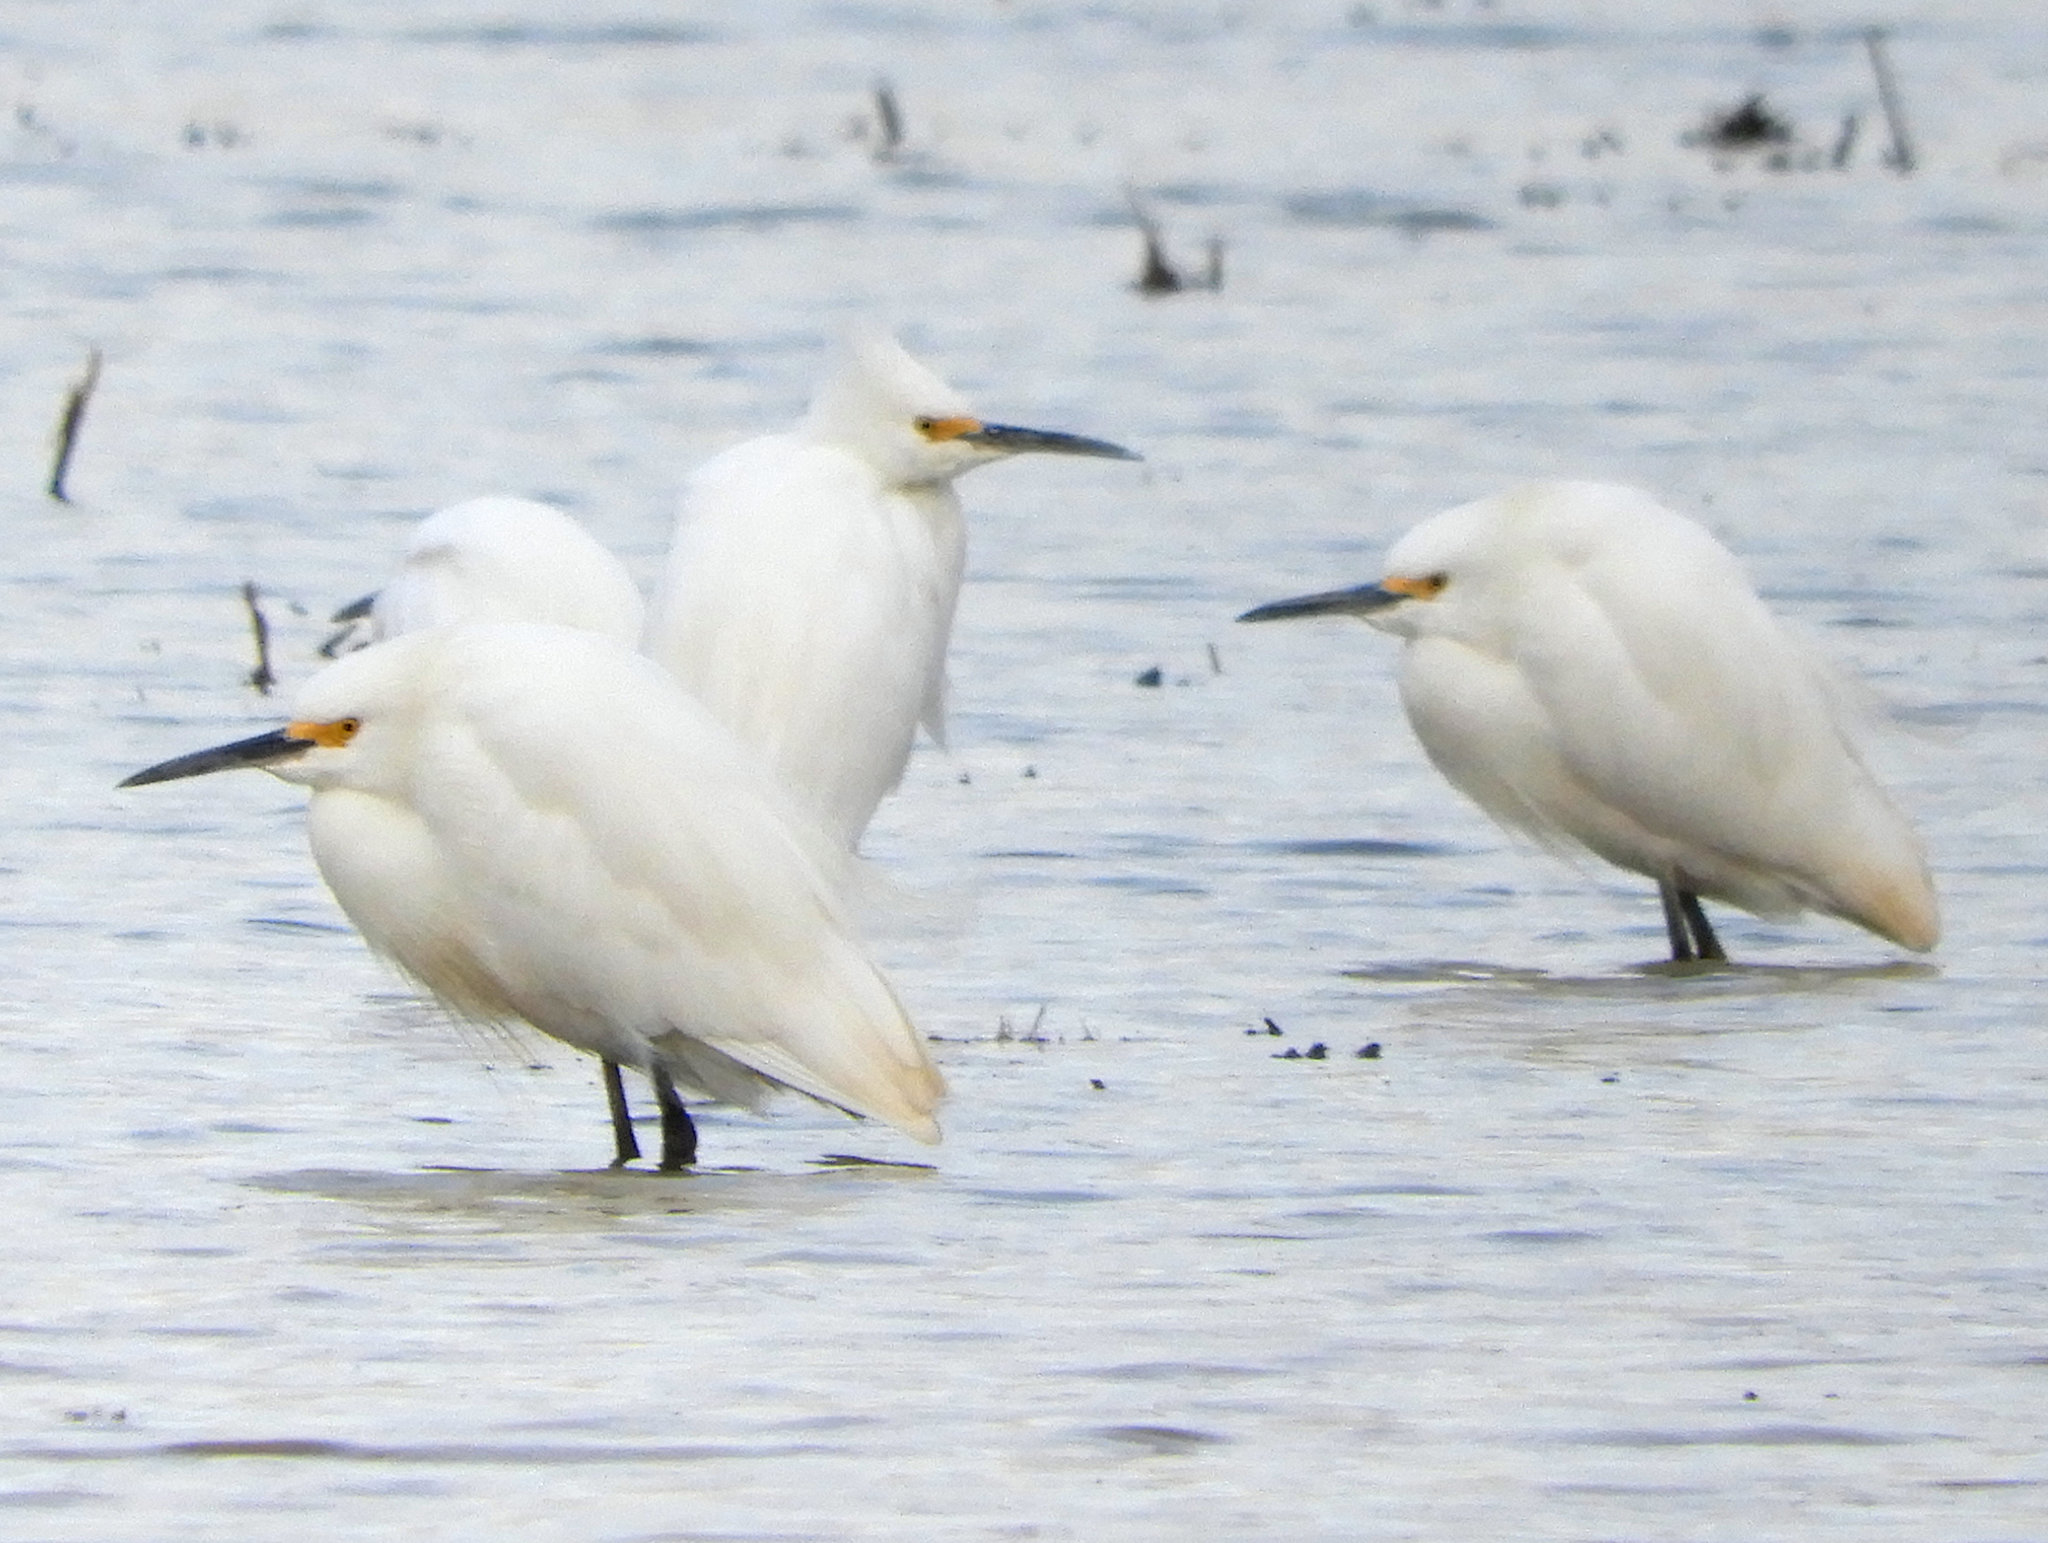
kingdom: Animalia
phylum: Chordata
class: Aves
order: Pelecaniformes
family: Ardeidae
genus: Egretta
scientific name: Egretta thula
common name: Snowy egret
